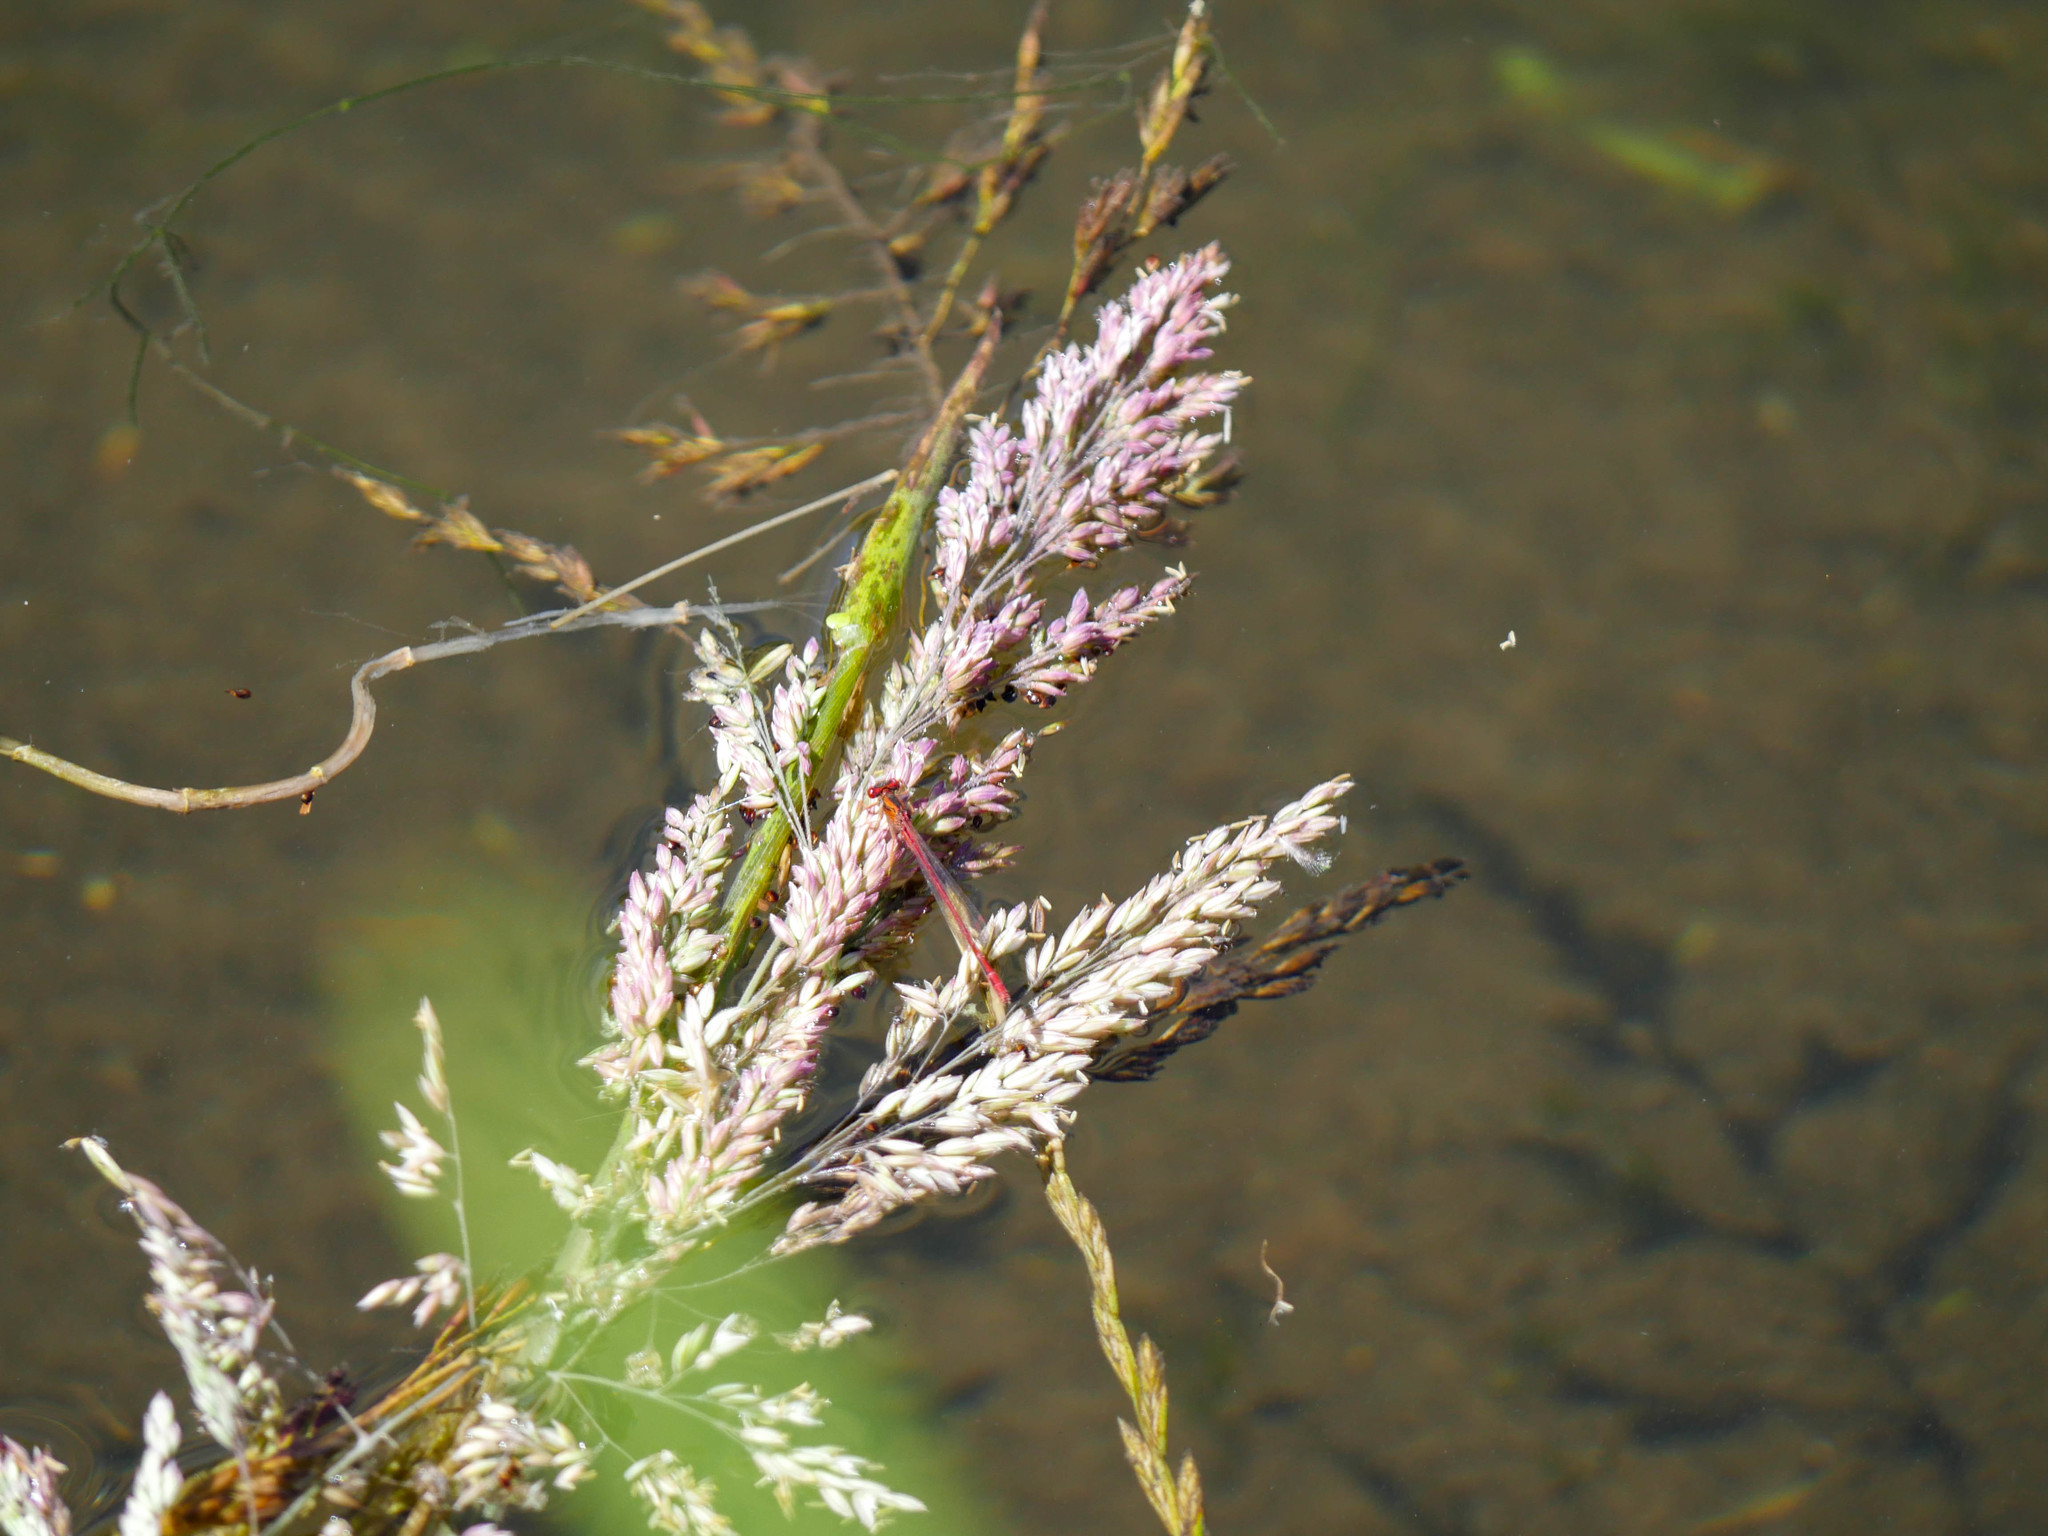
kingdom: Animalia
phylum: Arthropoda
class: Insecta
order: Odonata
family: Coenagrionidae
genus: Xanthocnemis
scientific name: Xanthocnemis zealandica
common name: Common redcoat damselfly
